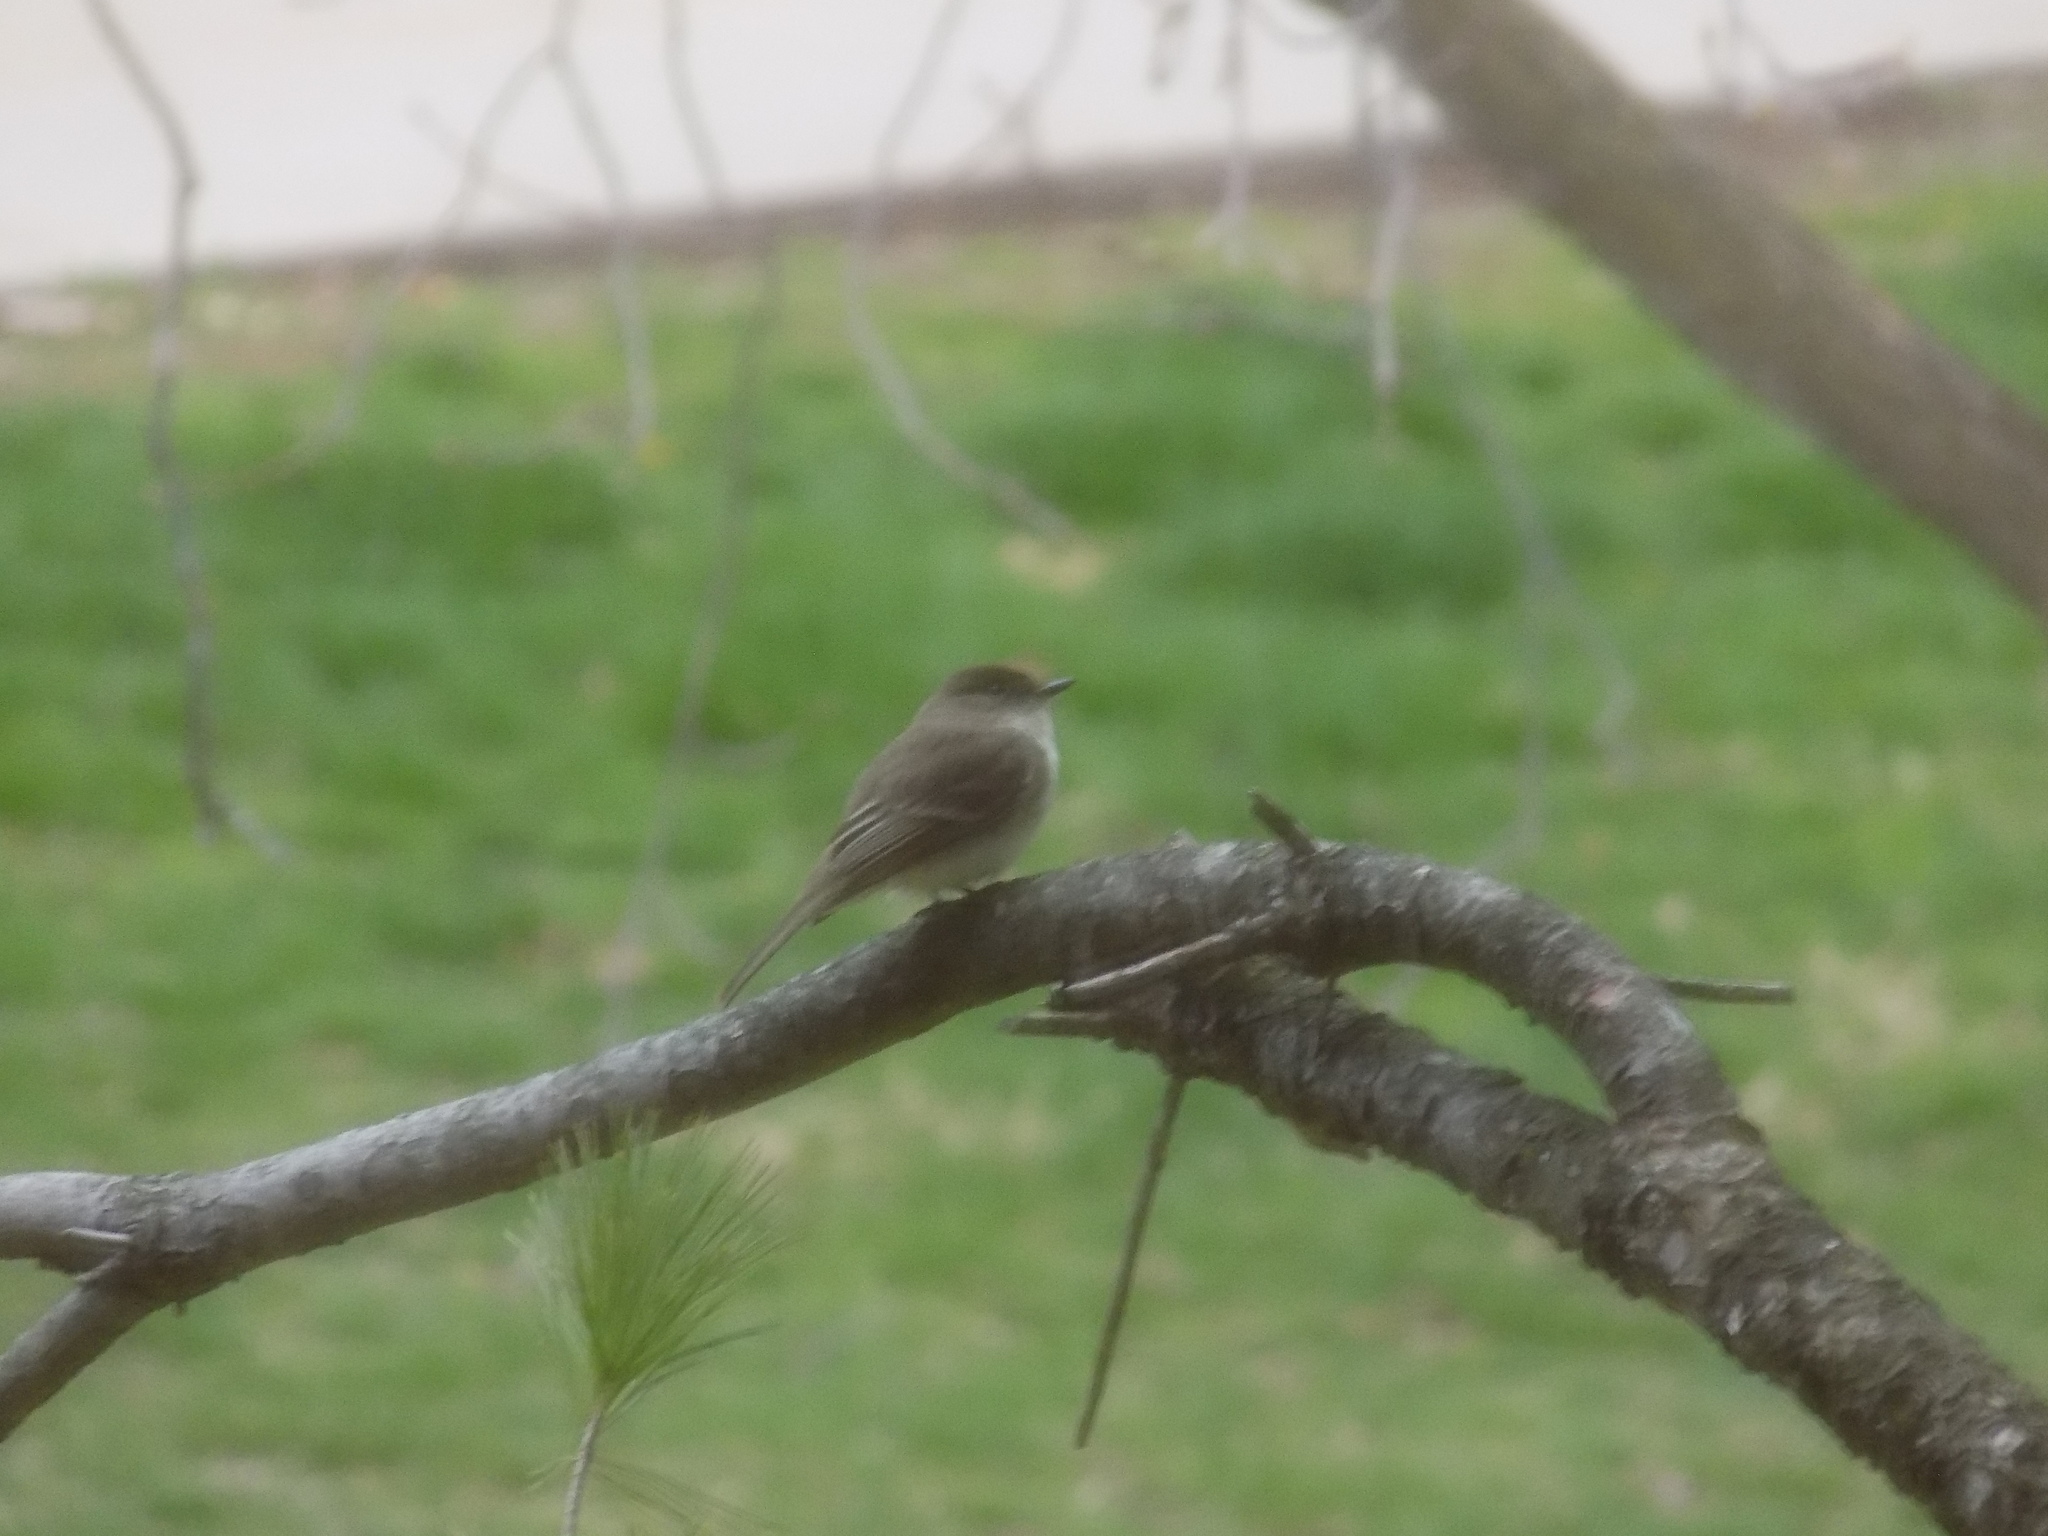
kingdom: Animalia
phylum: Chordata
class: Aves
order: Passeriformes
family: Tyrannidae
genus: Sayornis
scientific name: Sayornis phoebe
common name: Eastern phoebe
